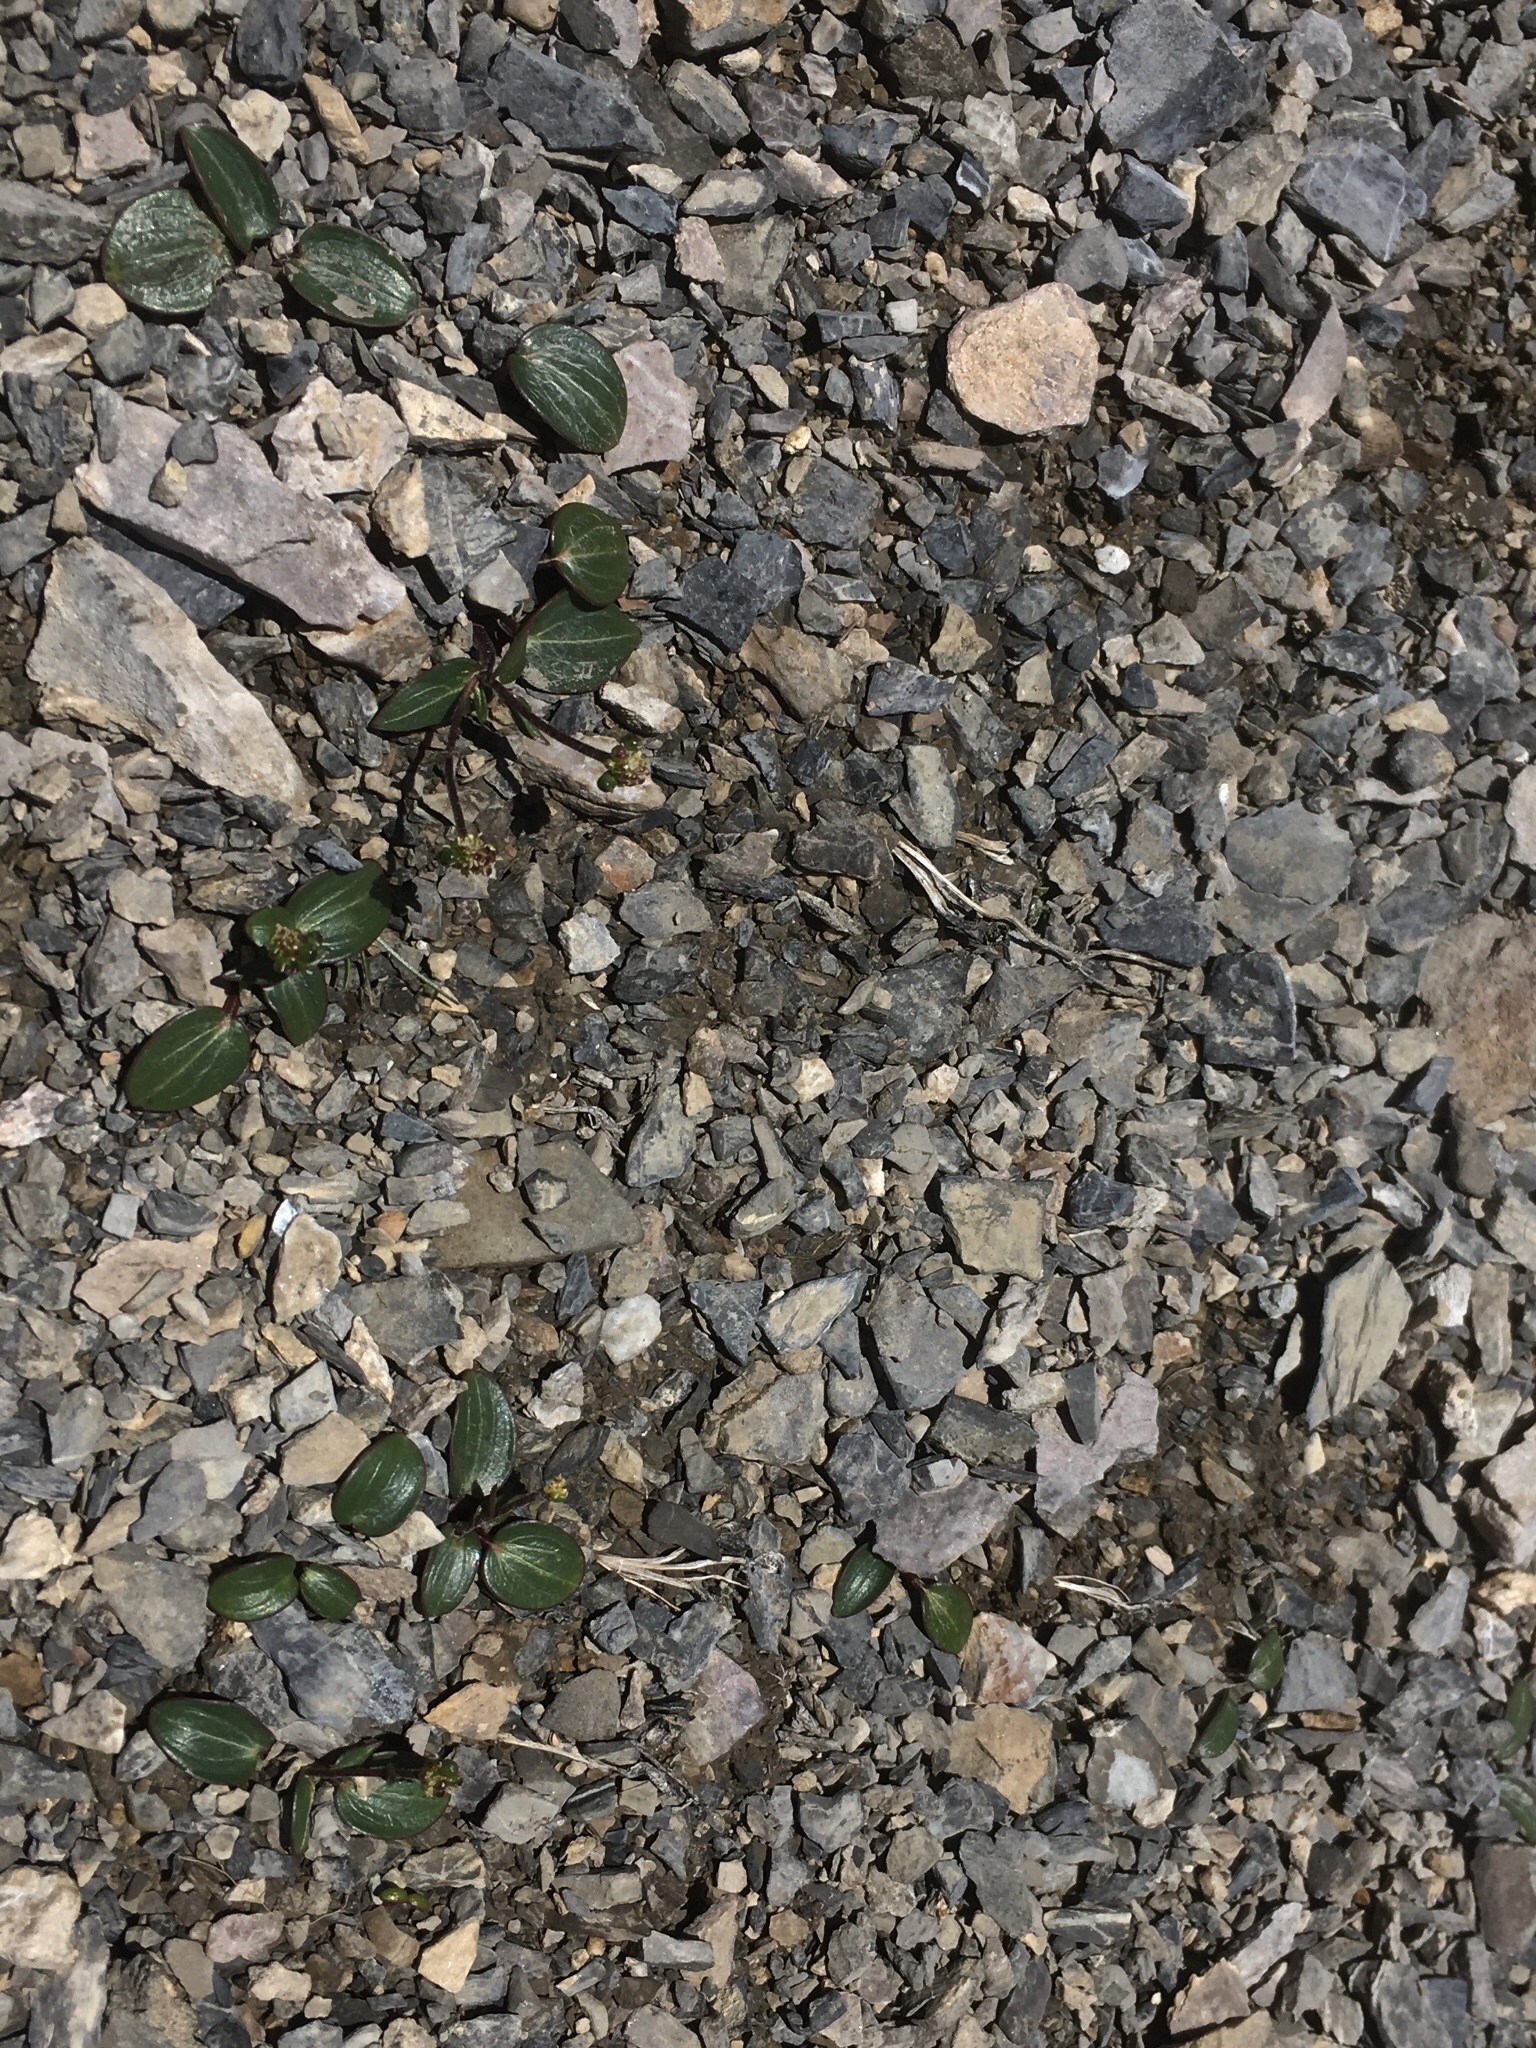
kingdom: Plantae
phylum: Tracheophyta
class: Magnoliopsida
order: Ranunculales
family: Ranunculaceae
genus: Ranunculus
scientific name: Ranunculus parnassiifolius
